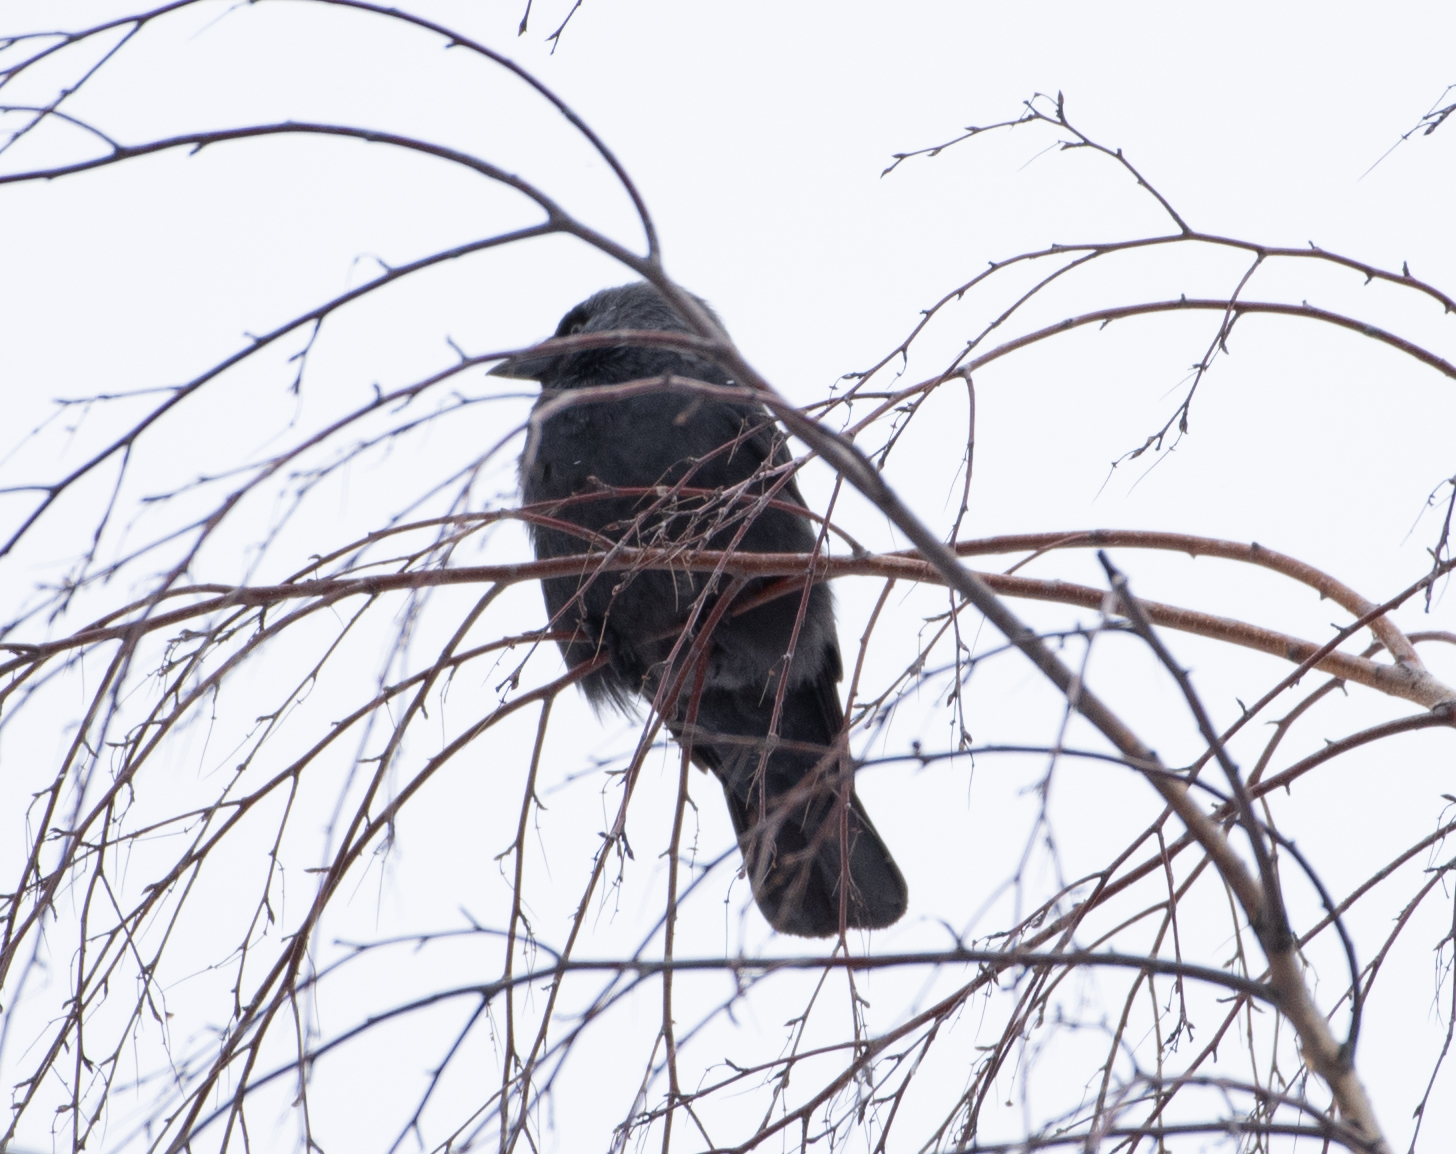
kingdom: Animalia
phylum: Chordata
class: Aves
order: Passeriformes
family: Corvidae
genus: Coloeus
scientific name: Coloeus monedula
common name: Western jackdaw
